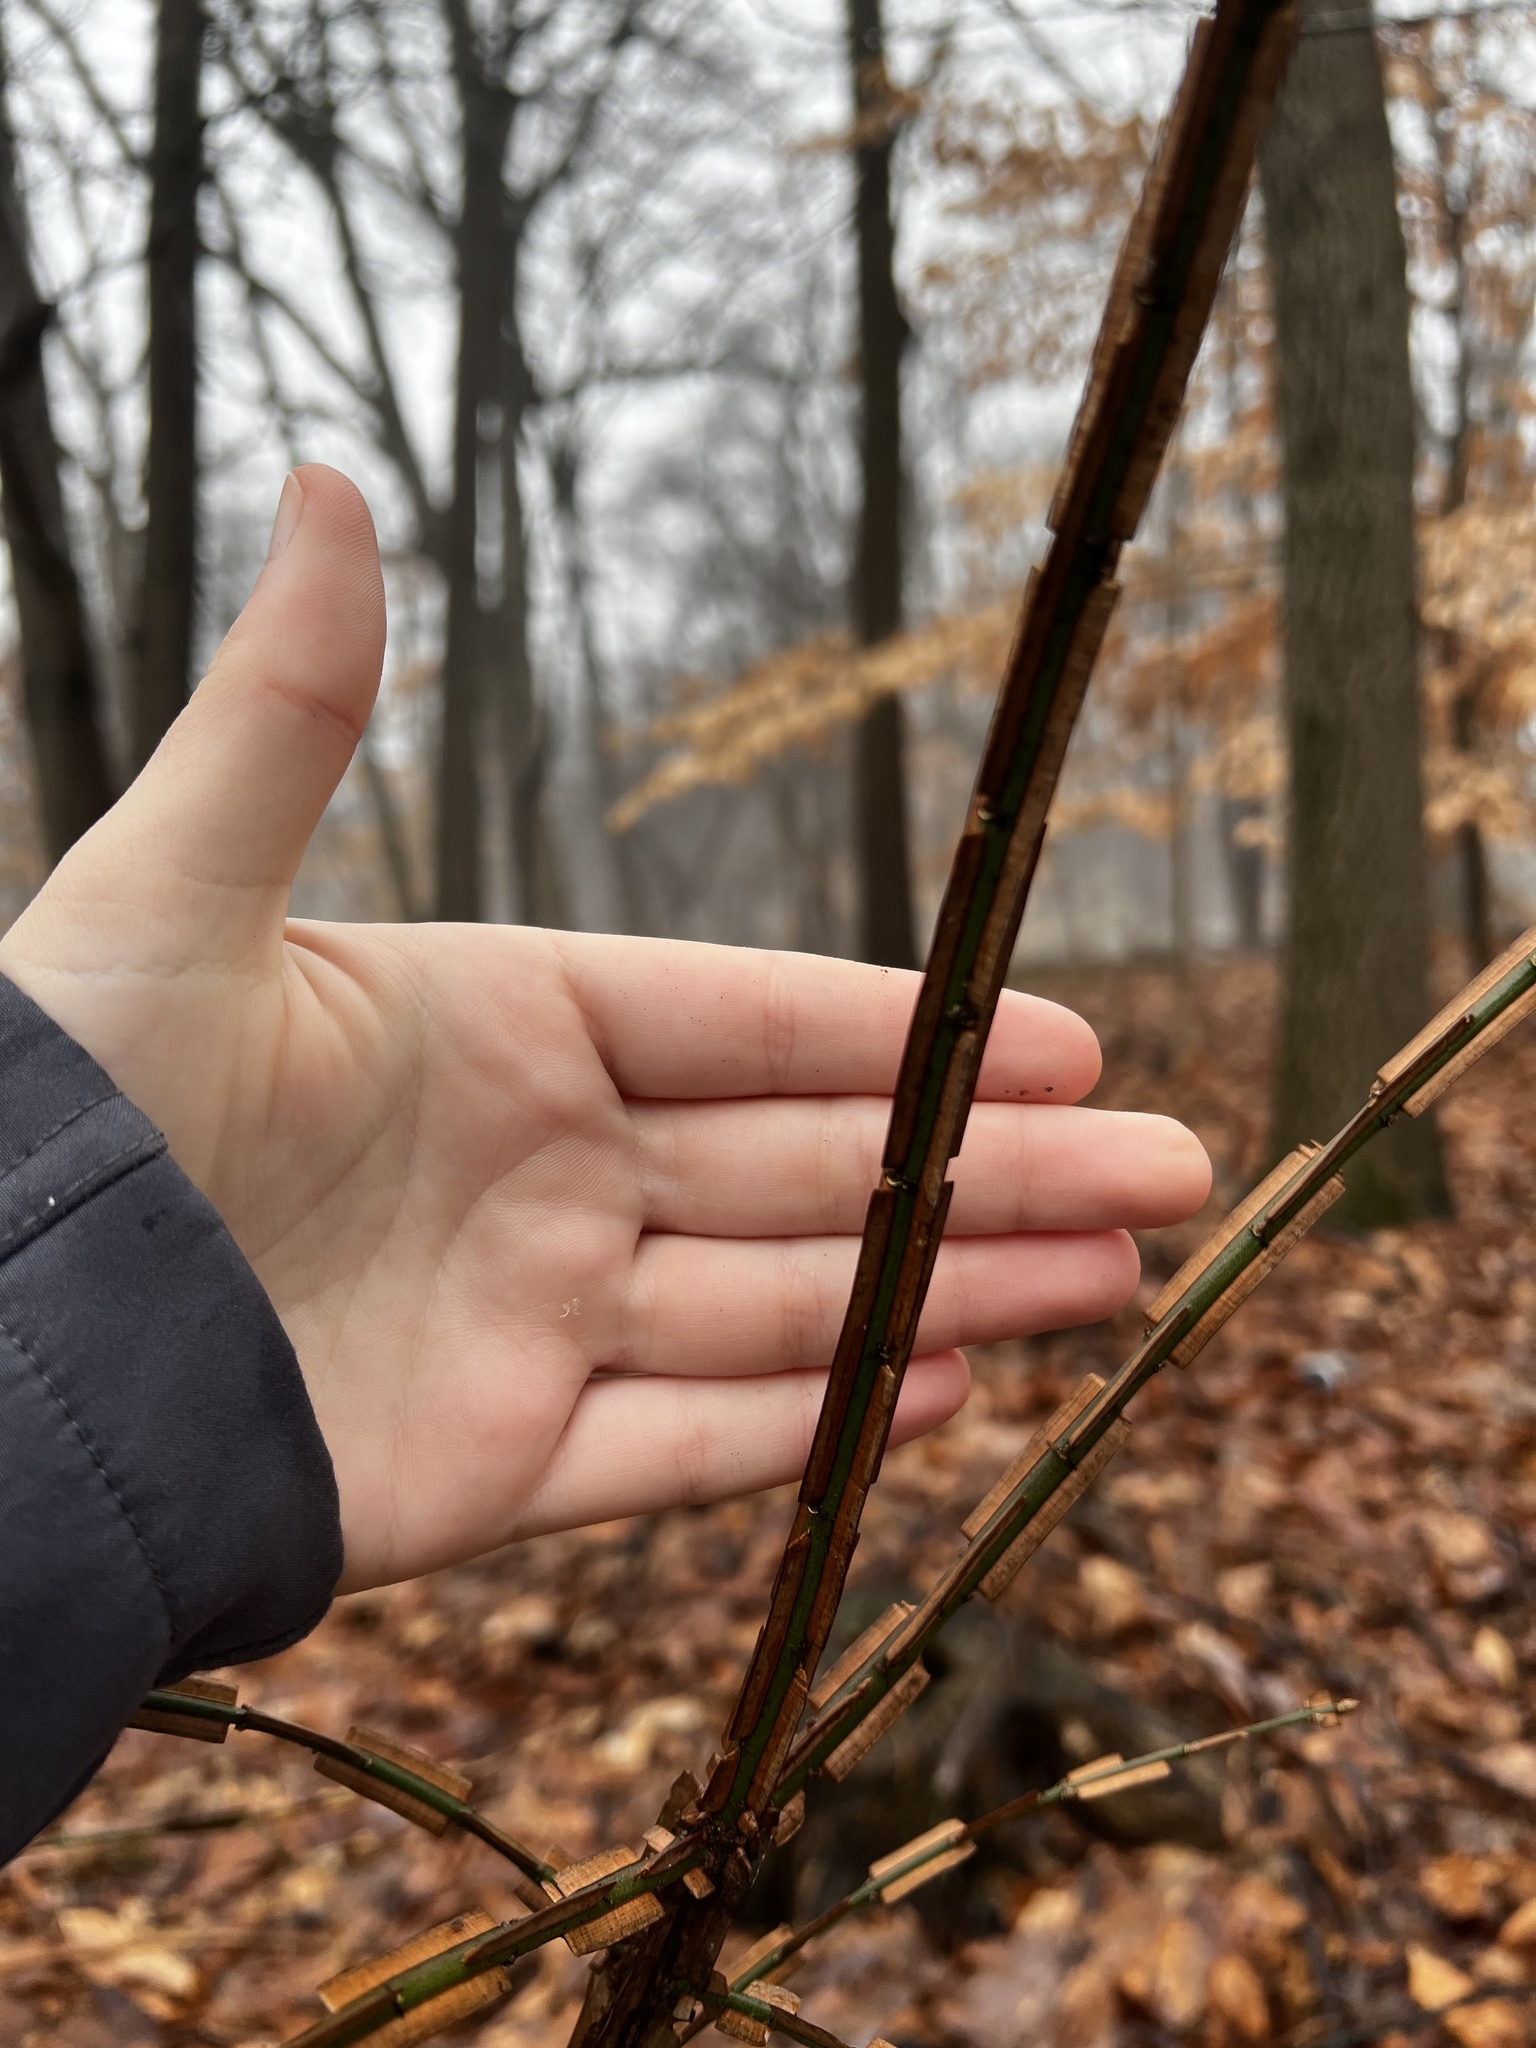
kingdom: Plantae
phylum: Tracheophyta
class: Magnoliopsida
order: Celastrales
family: Celastraceae
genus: Euonymus
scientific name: Euonymus alatus
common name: Winged euonymus
